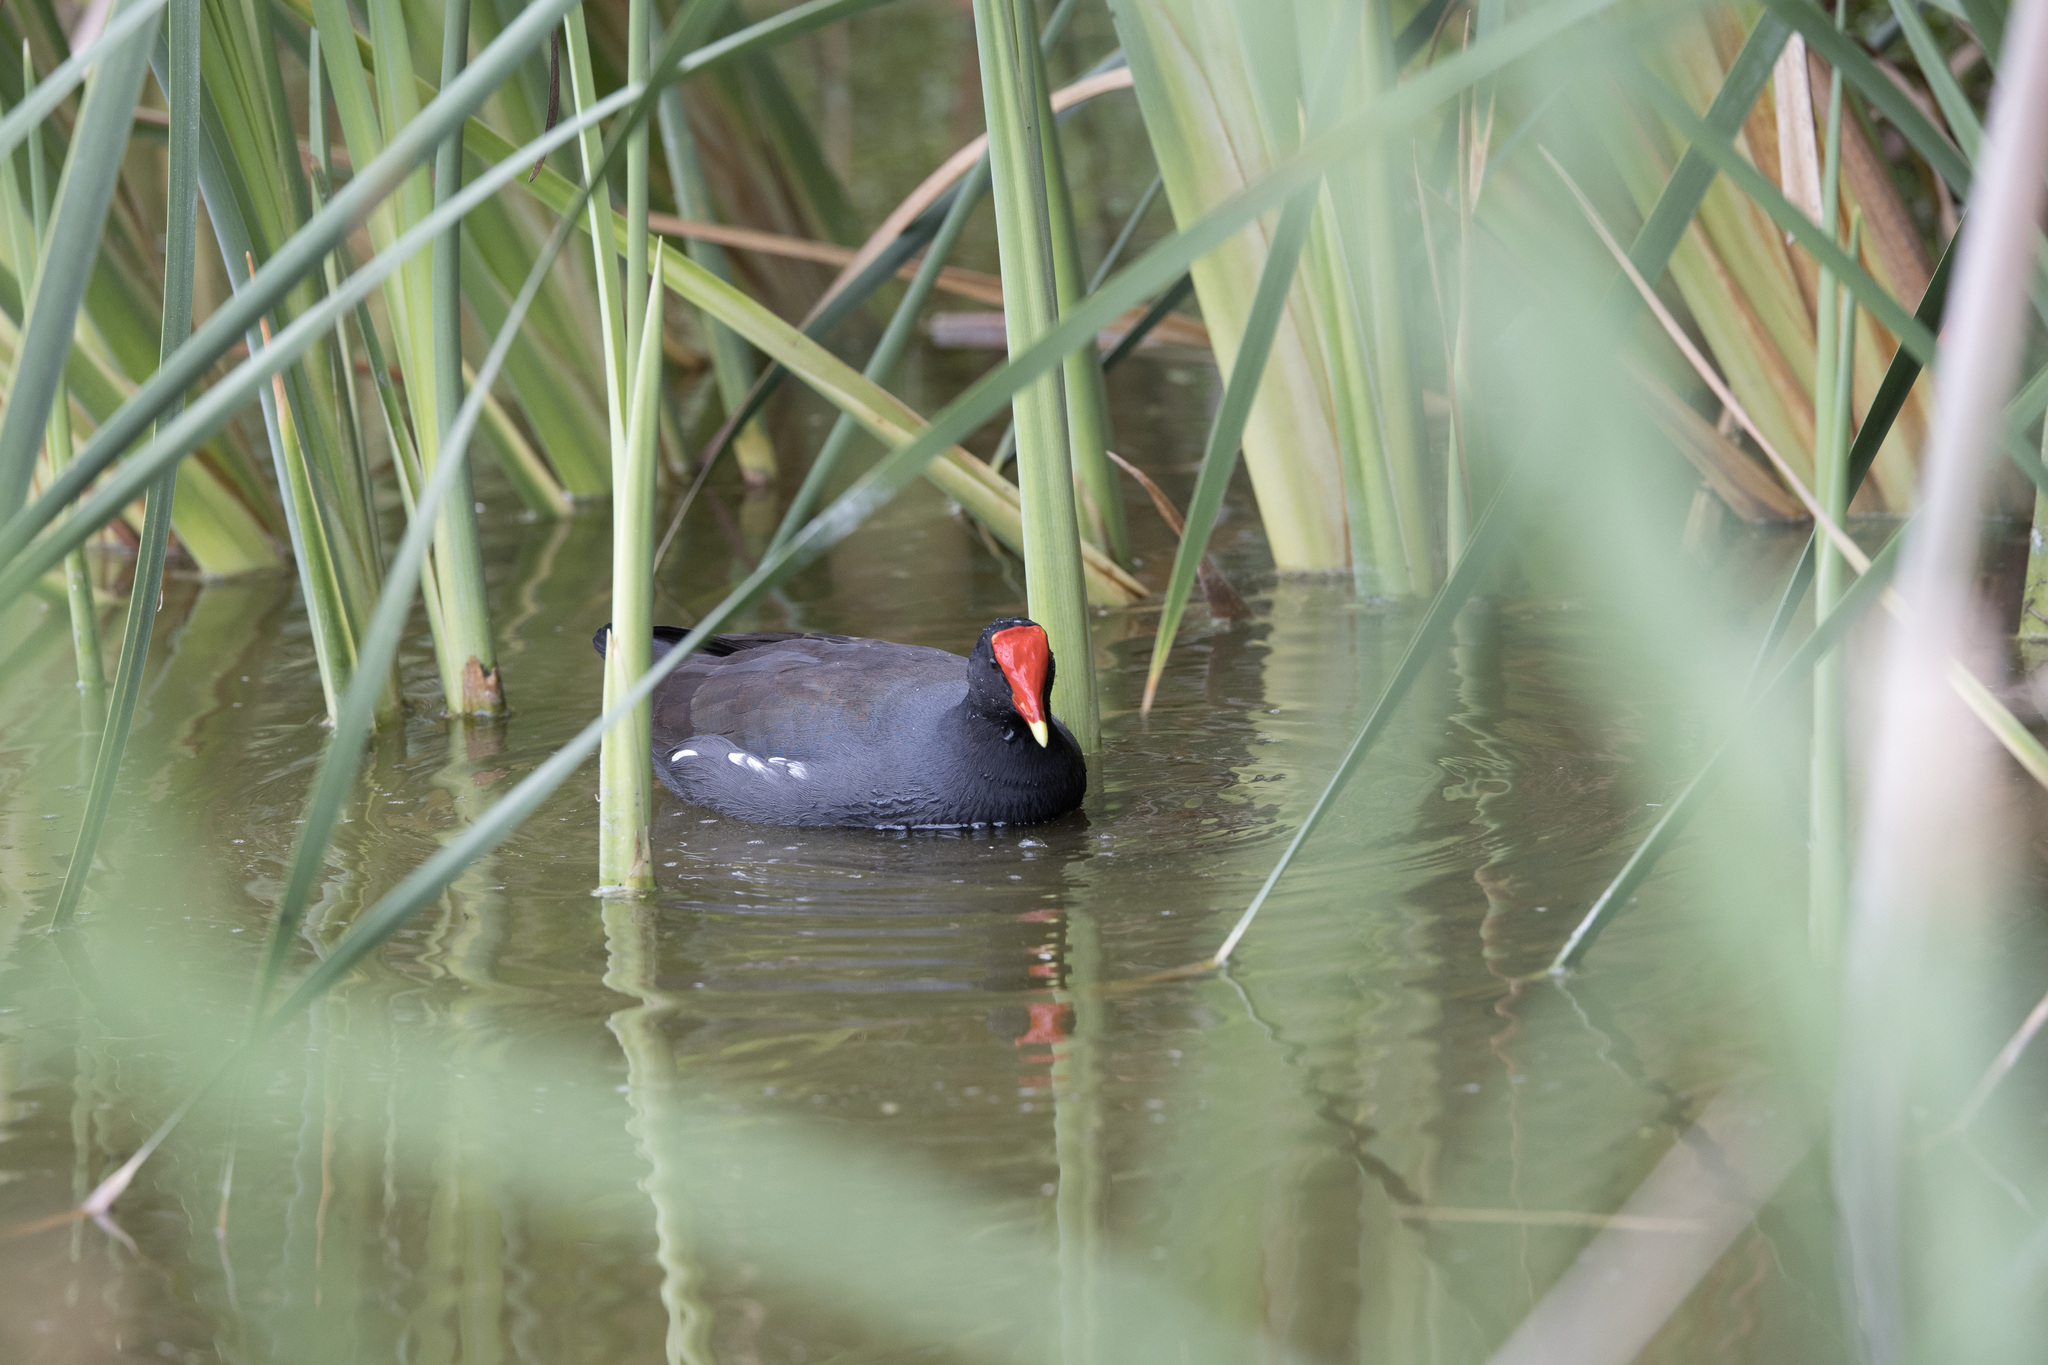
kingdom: Animalia
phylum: Chordata
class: Aves
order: Gruiformes
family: Rallidae
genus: Gallinula
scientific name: Gallinula chloropus
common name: Common moorhen
